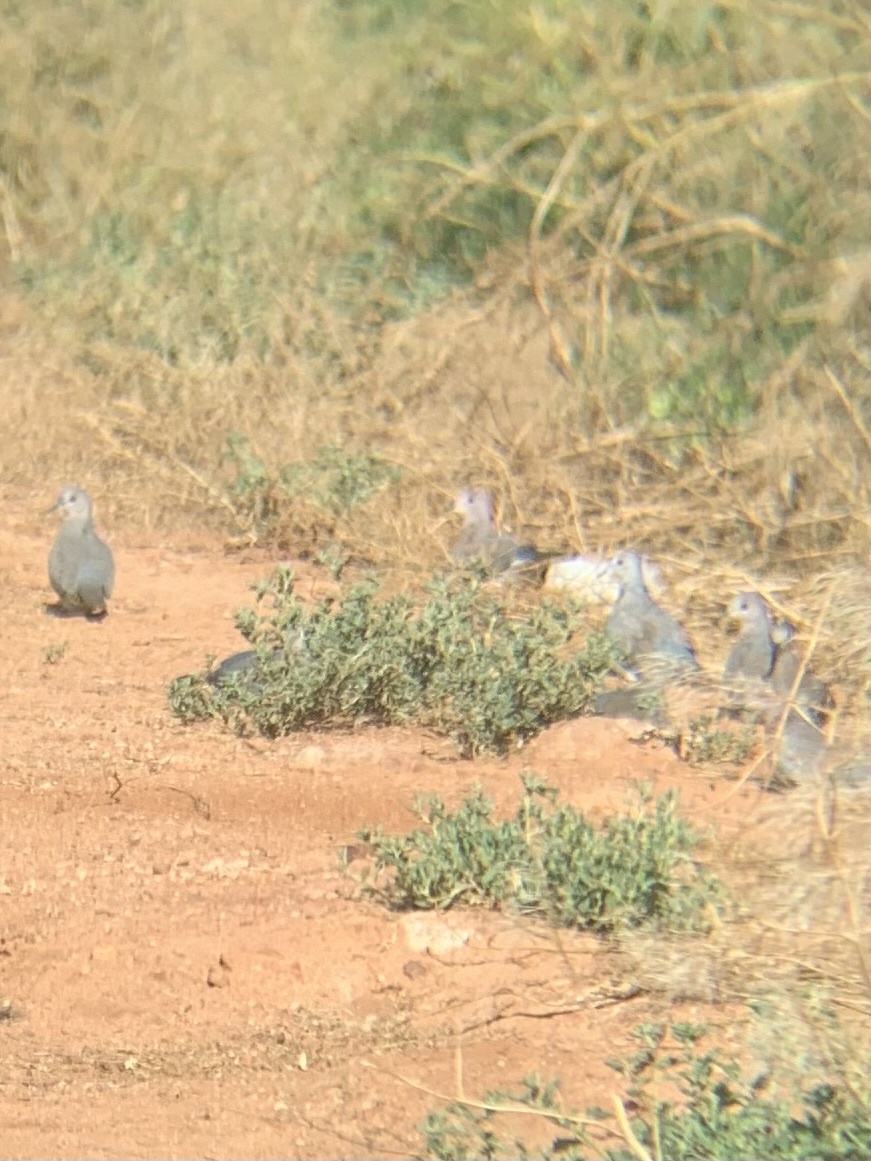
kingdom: Animalia
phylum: Chordata
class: Aves
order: Columbiformes
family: Columbidae
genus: Spilopelia
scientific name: Spilopelia senegalensis
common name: Laughing dove
